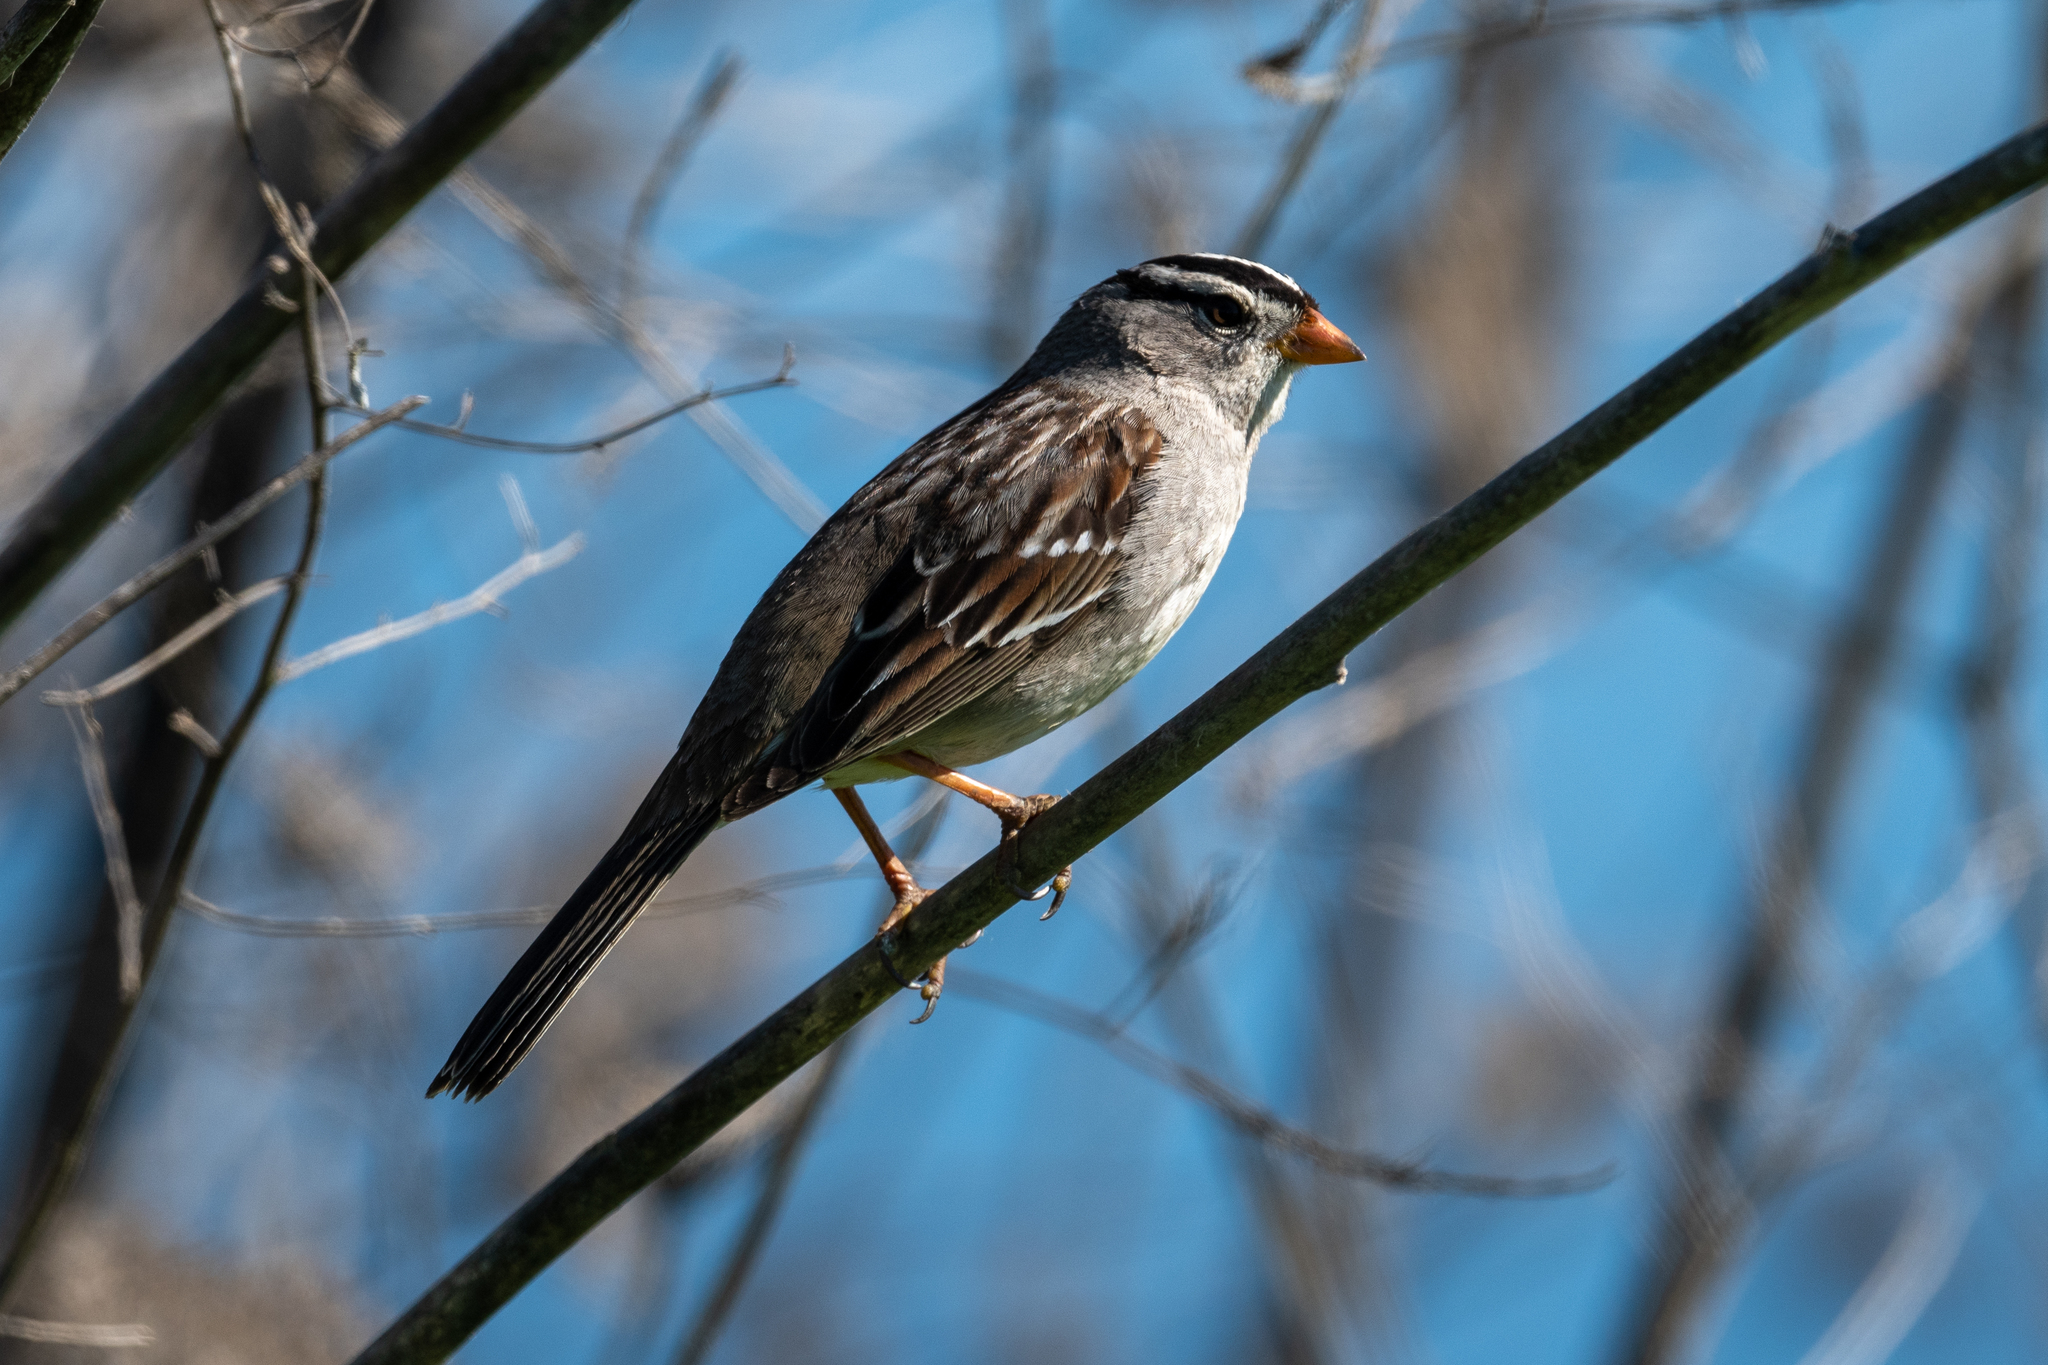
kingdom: Animalia
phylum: Chordata
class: Aves
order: Passeriformes
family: Passerellidae
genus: Zonotrichia
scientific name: Zonotrichia leucophrys
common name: White-crowned sparrow
